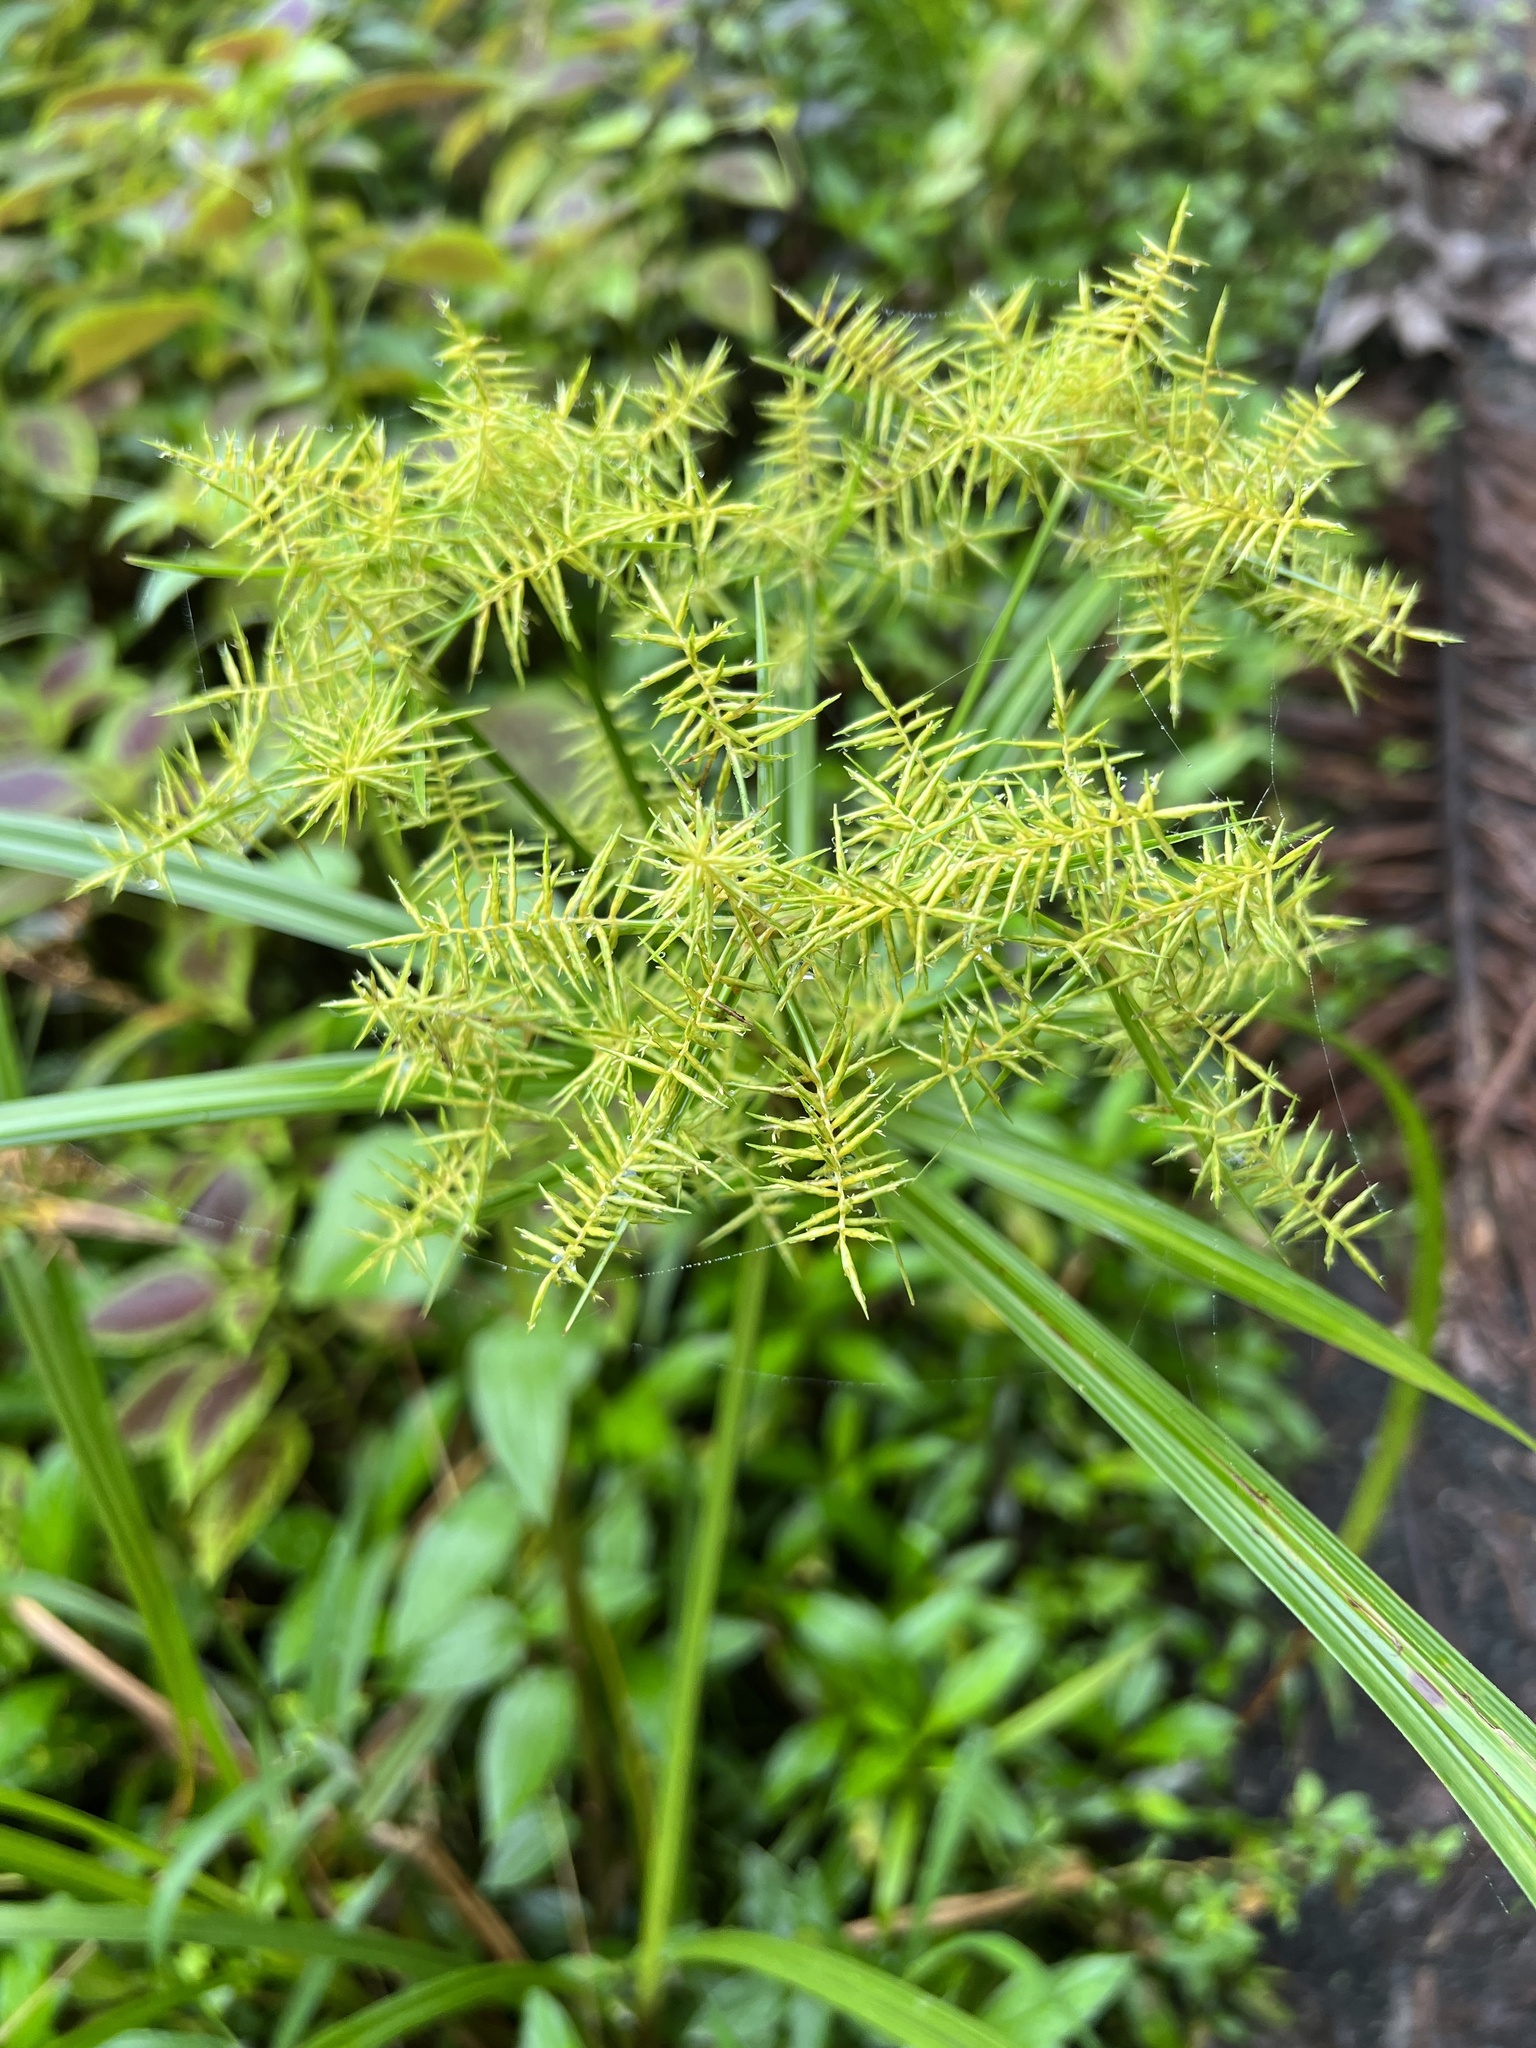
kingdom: Plantae
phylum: Tracheophyta
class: Liliopsida
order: Poales
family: Cyperaceae
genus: Cyperus
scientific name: Cyperus odoratus
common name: Fragrant flatsedge
